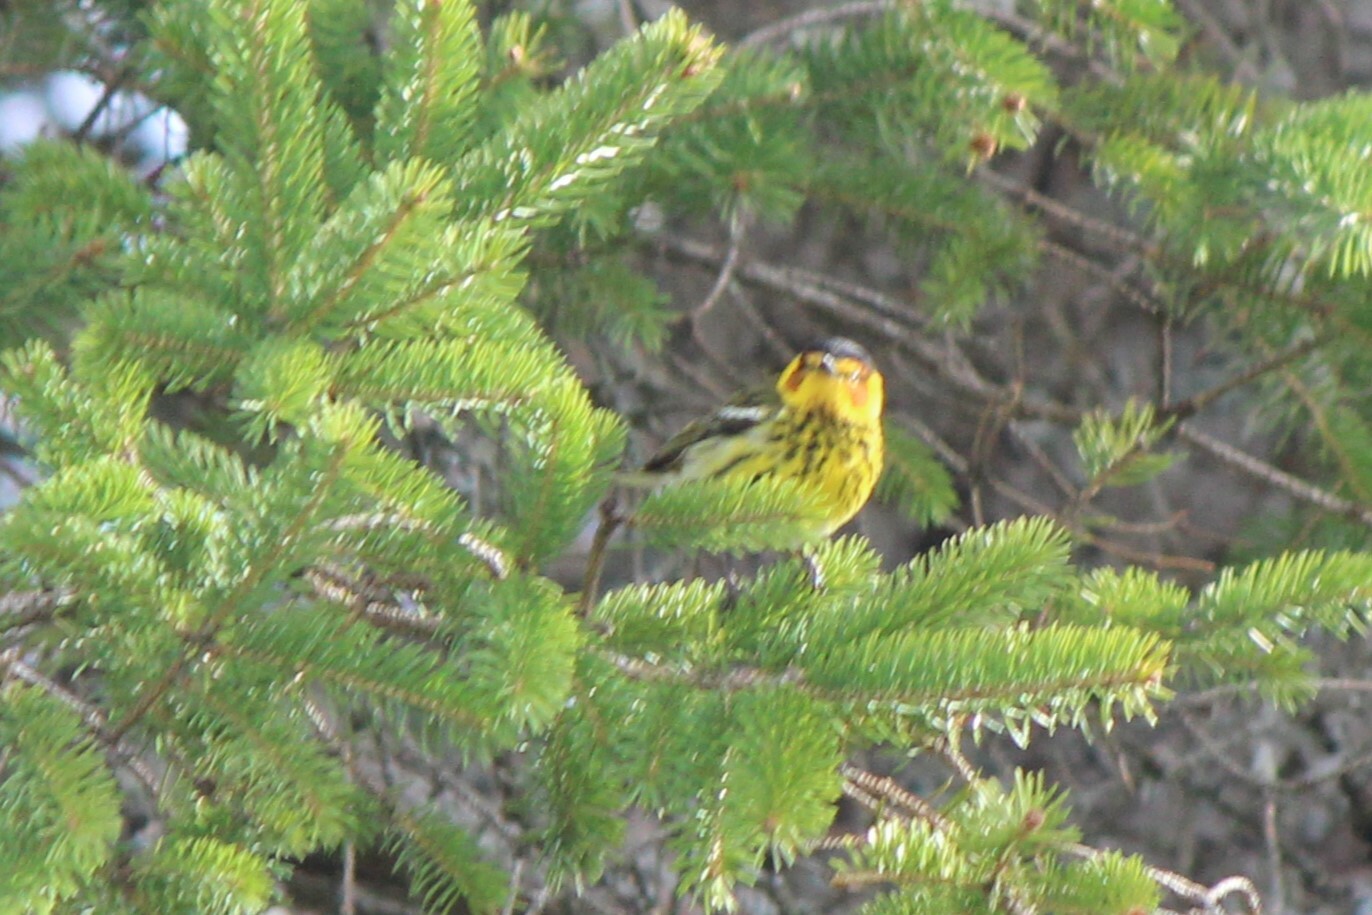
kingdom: Animalia
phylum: Chordata
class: Aves
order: Passeriformes
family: Parulidae
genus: Setophaga
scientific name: Setophaga tigrina
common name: Cape may warbler
